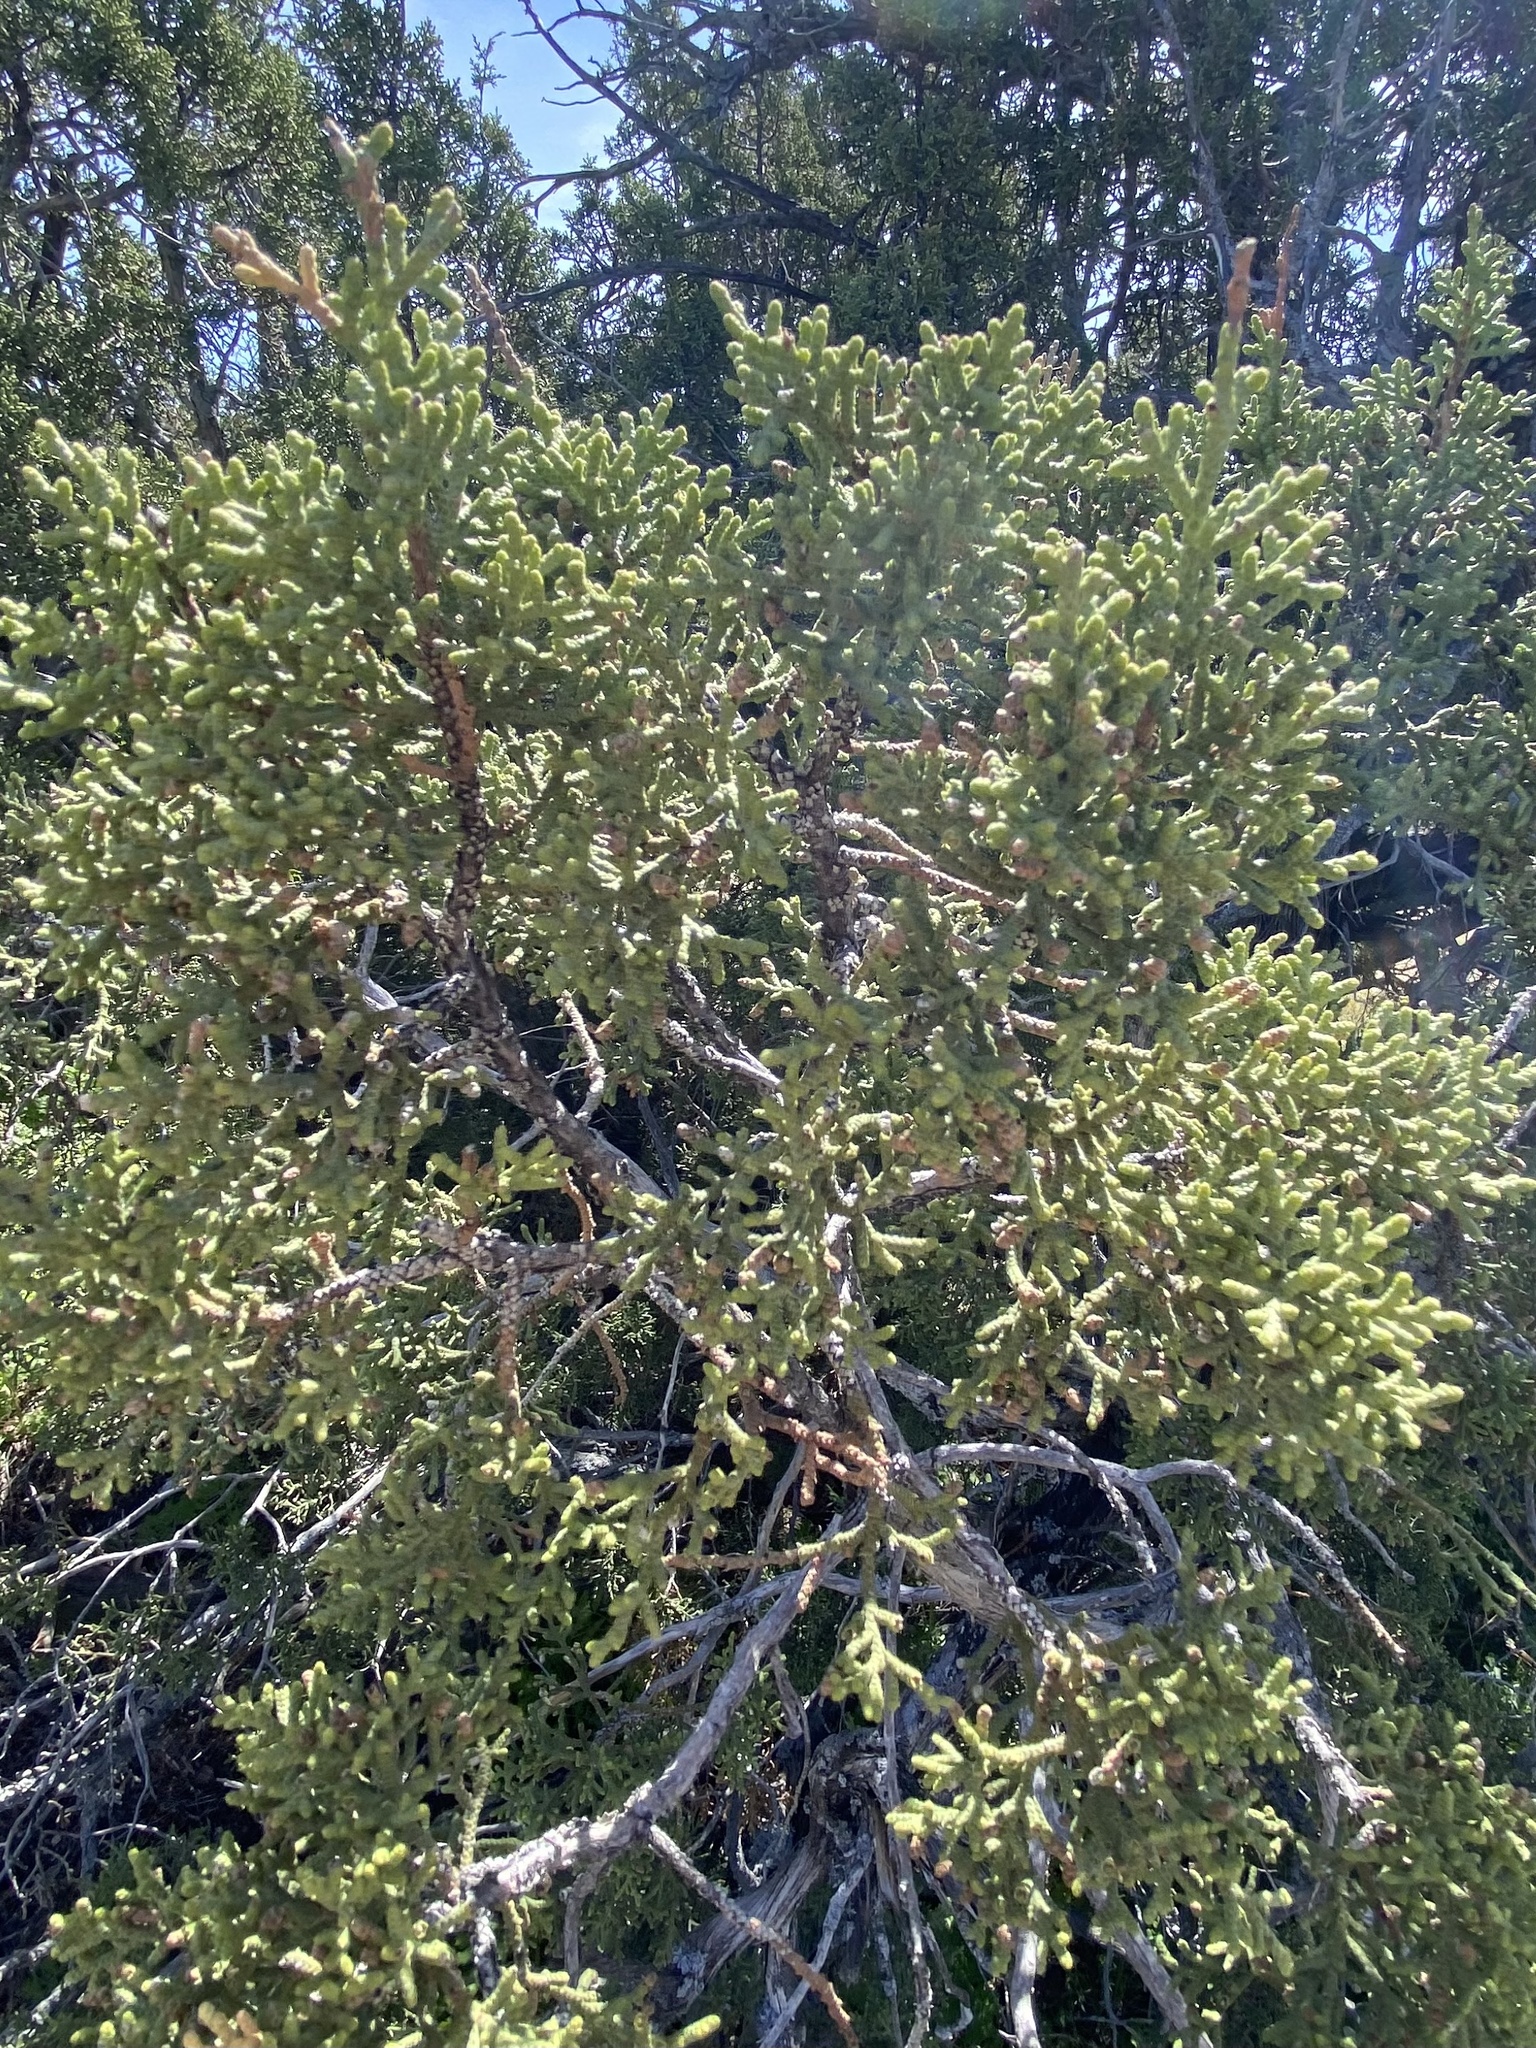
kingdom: Plantae
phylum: Tracheophyta
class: Pinopsida
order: Pinales
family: Cupressaceae
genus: Juniperus
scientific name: Juniperus californica
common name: California juniper
